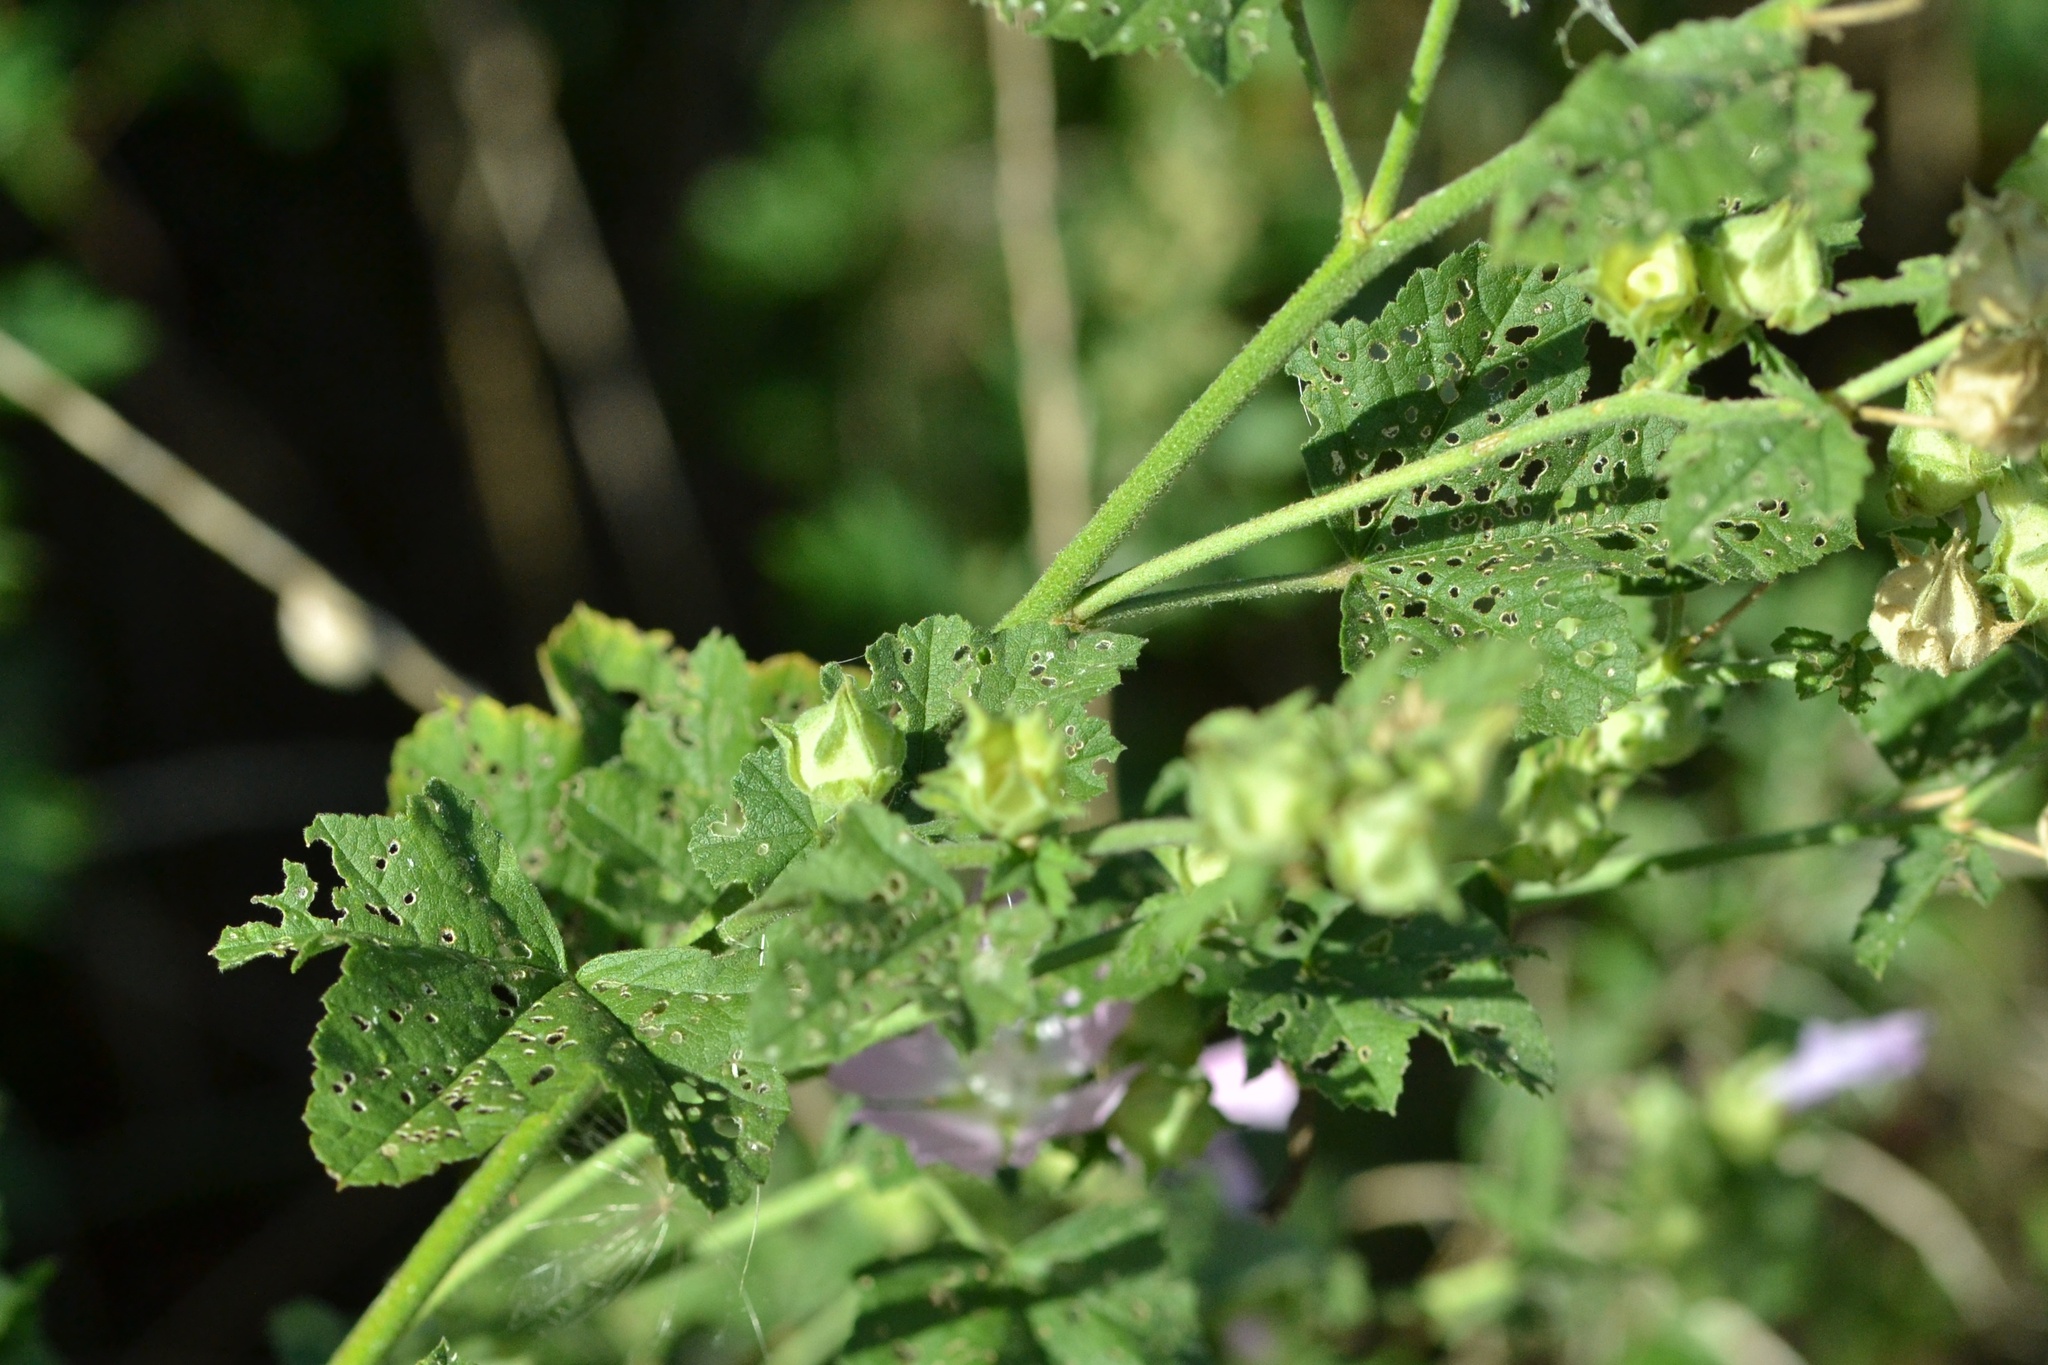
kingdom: Plantae
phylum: Tracheophyta
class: Magnoliopsida
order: Malvales
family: Malvaceae
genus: Malva
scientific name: Malva thuringiaca
